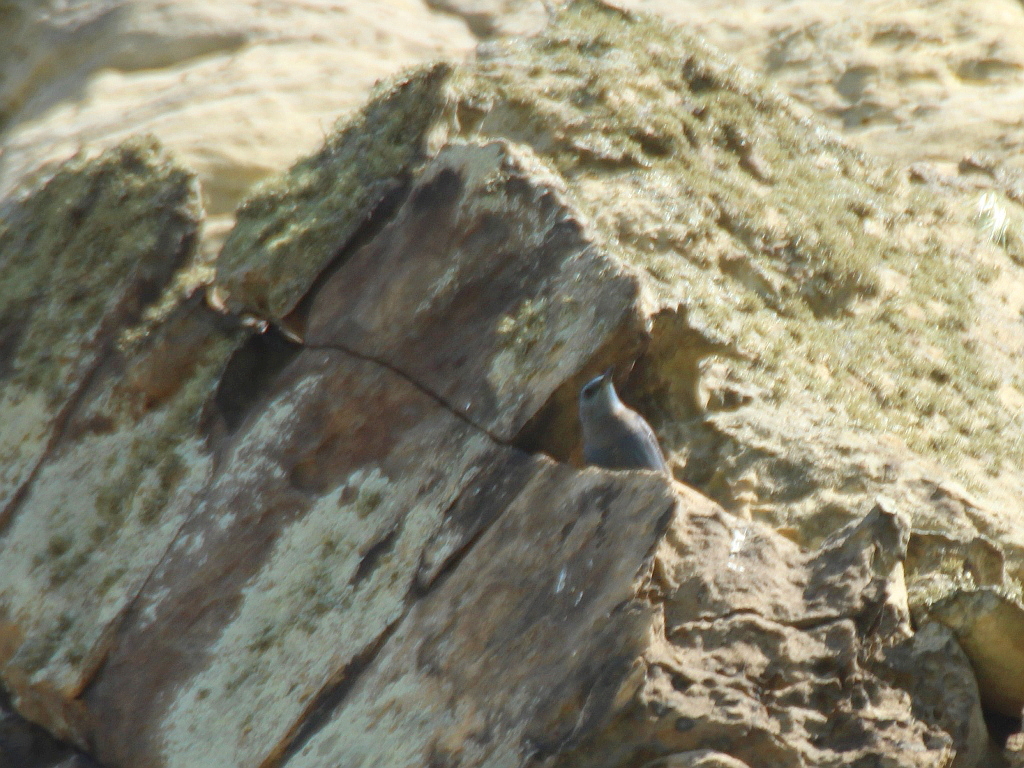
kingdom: Animalia
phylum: Chordata
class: Aves
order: Passeriformes
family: Muscicapidae
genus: Monticola
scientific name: Monticola solitarius
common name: Blue rock thrush
